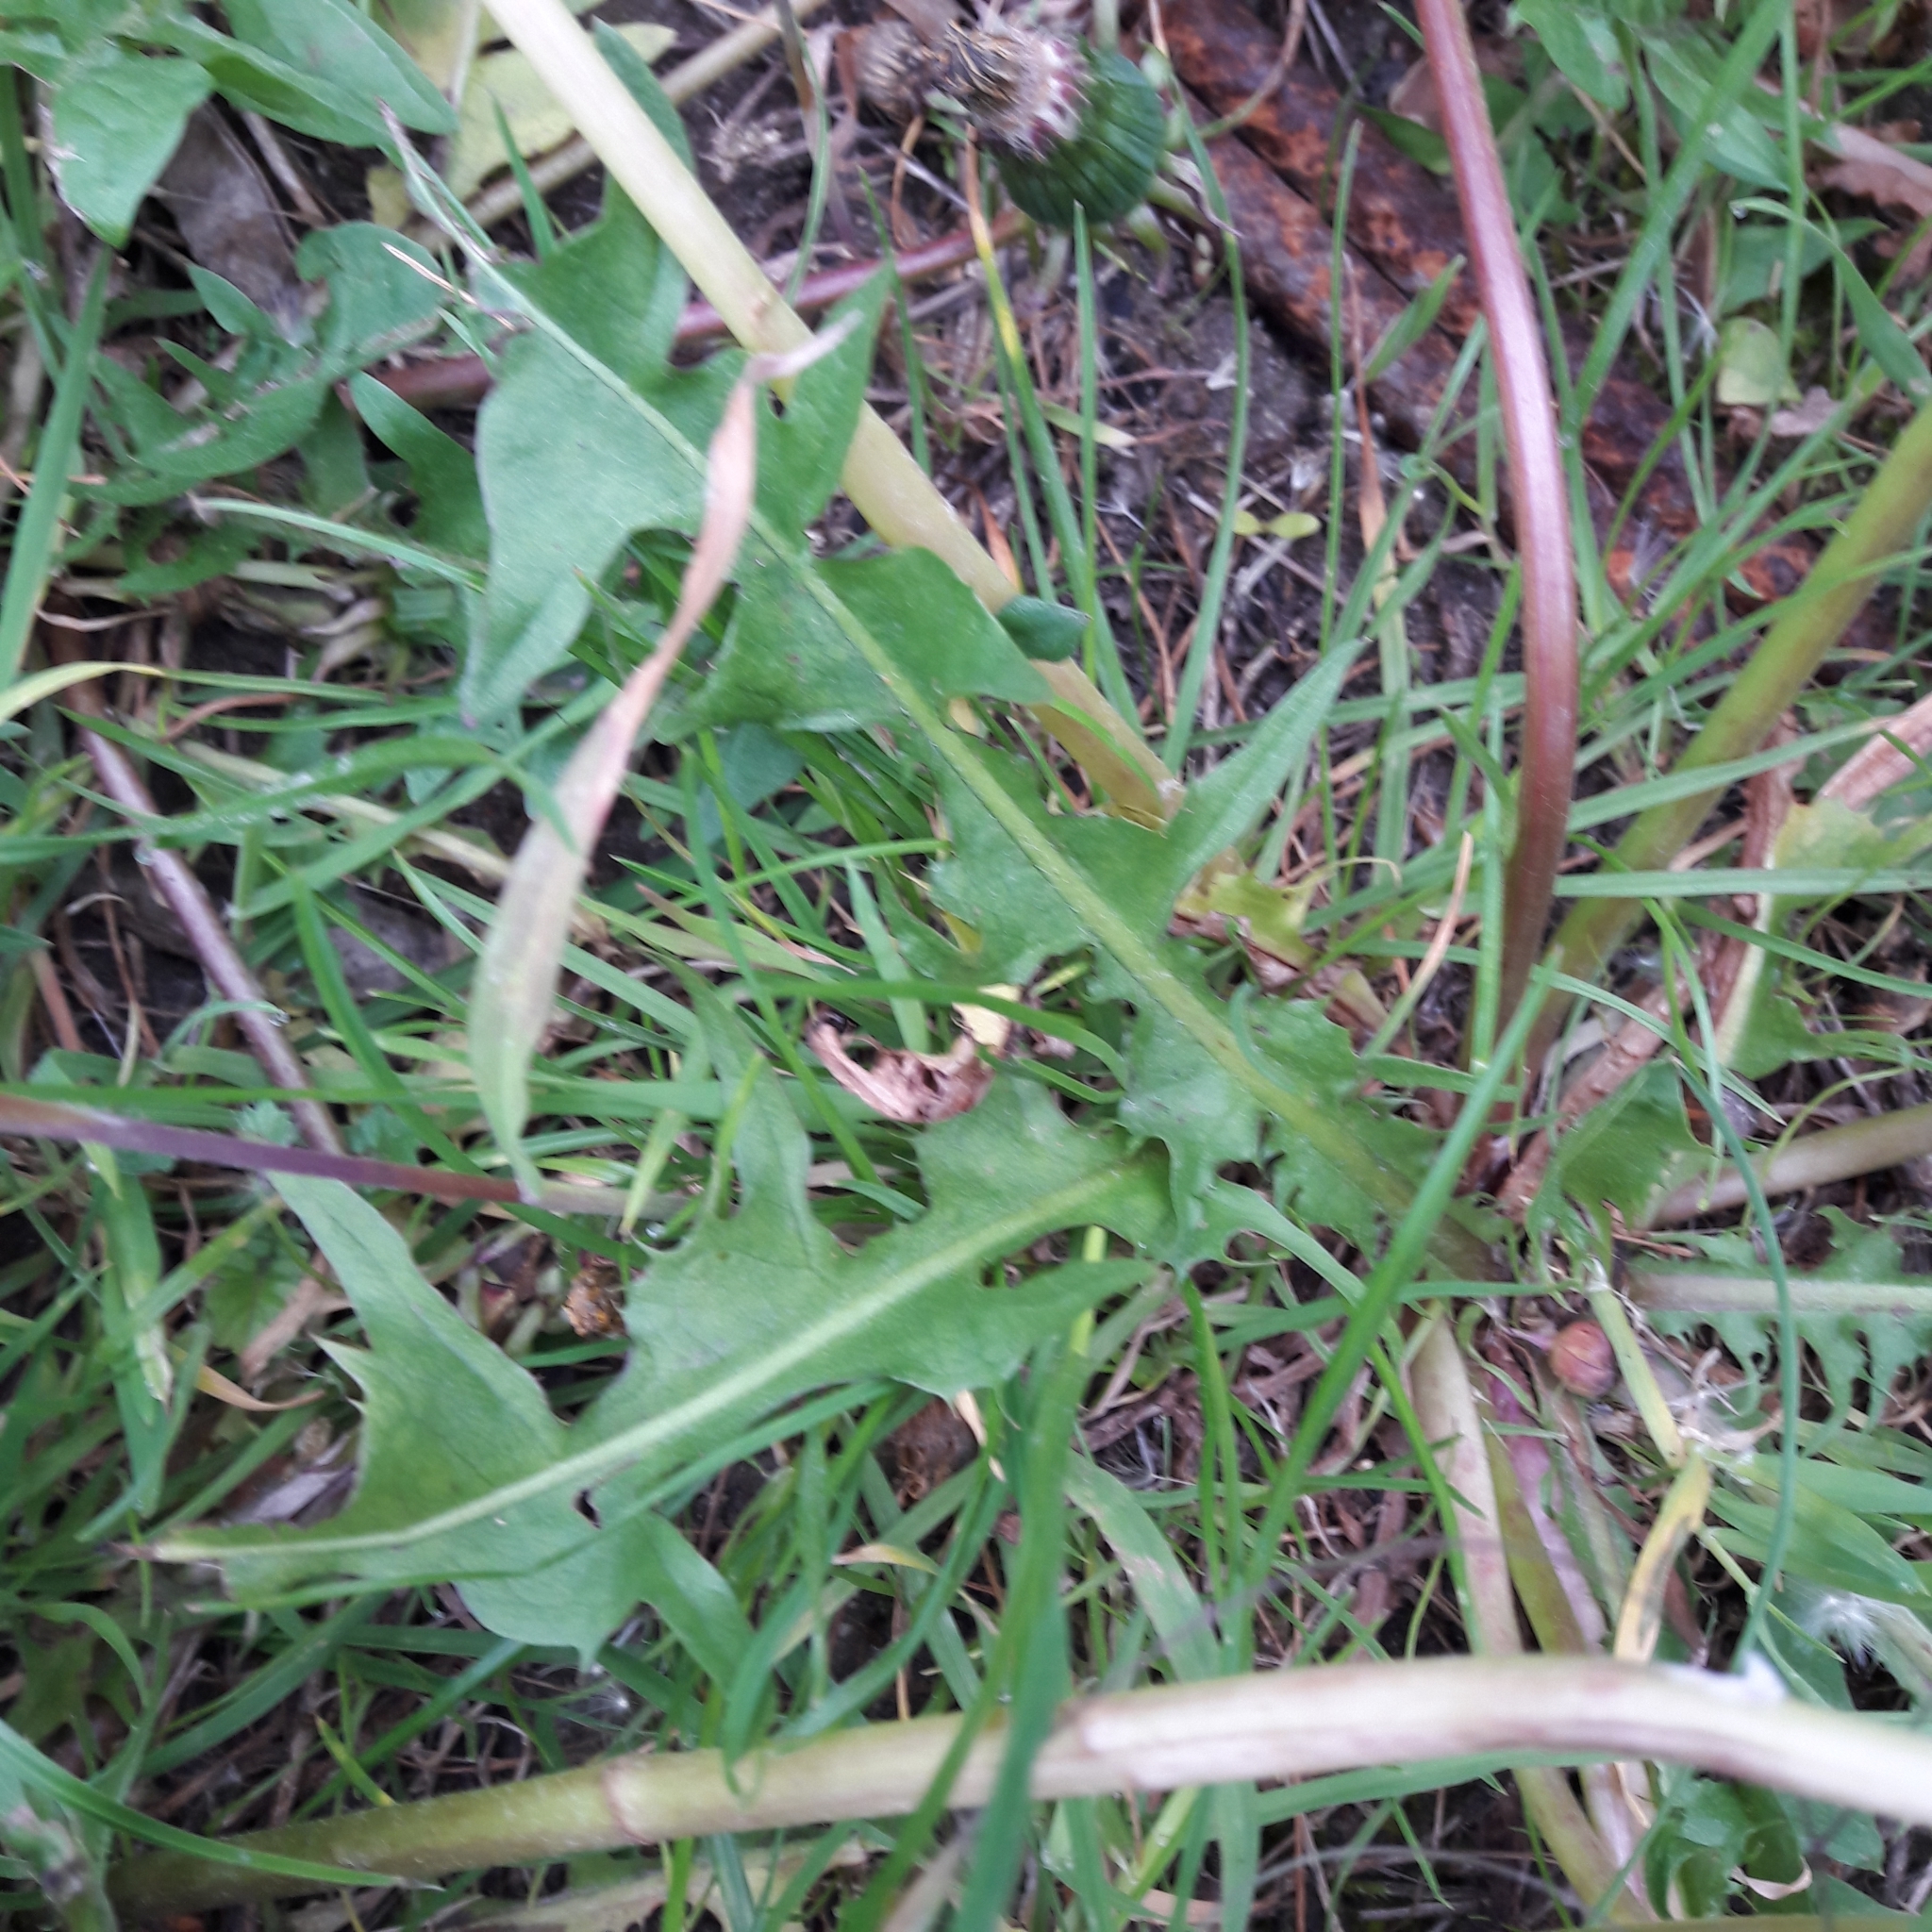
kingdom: Plantae
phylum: Tracheophyta
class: Magnoliopsida
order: Asterales
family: Asteraceae
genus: Taraxacum
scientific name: Taraxacum officinale
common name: Common dandelion
